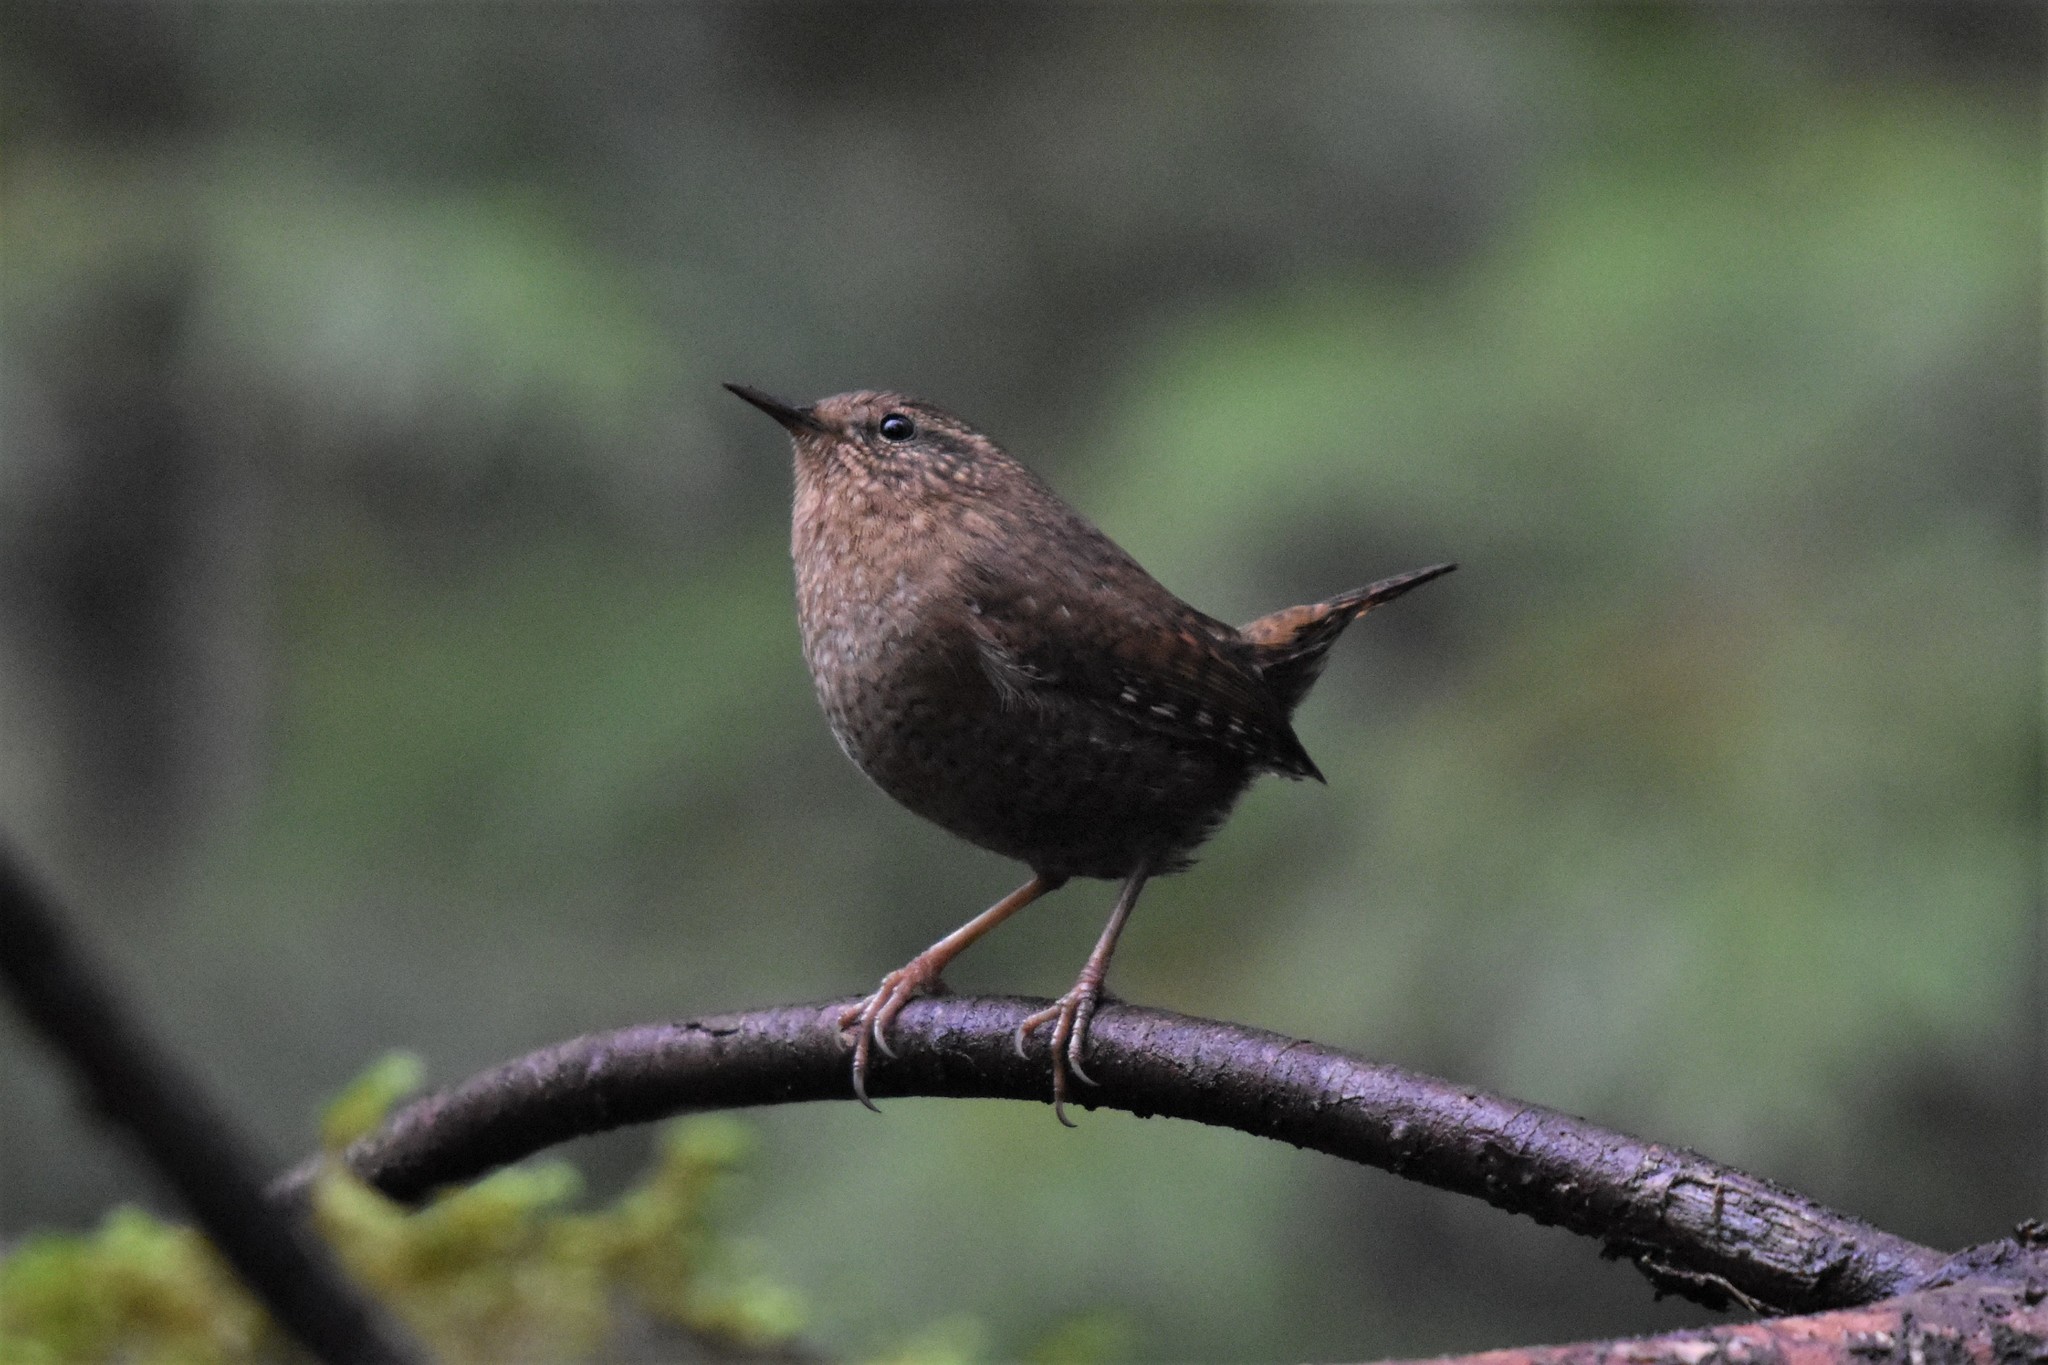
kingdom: Animalia
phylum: Chordata
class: Aves
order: Passeriformes
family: Troglodytidae
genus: Troglodytes
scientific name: Troglodytes pacificus
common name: Pacific wren
